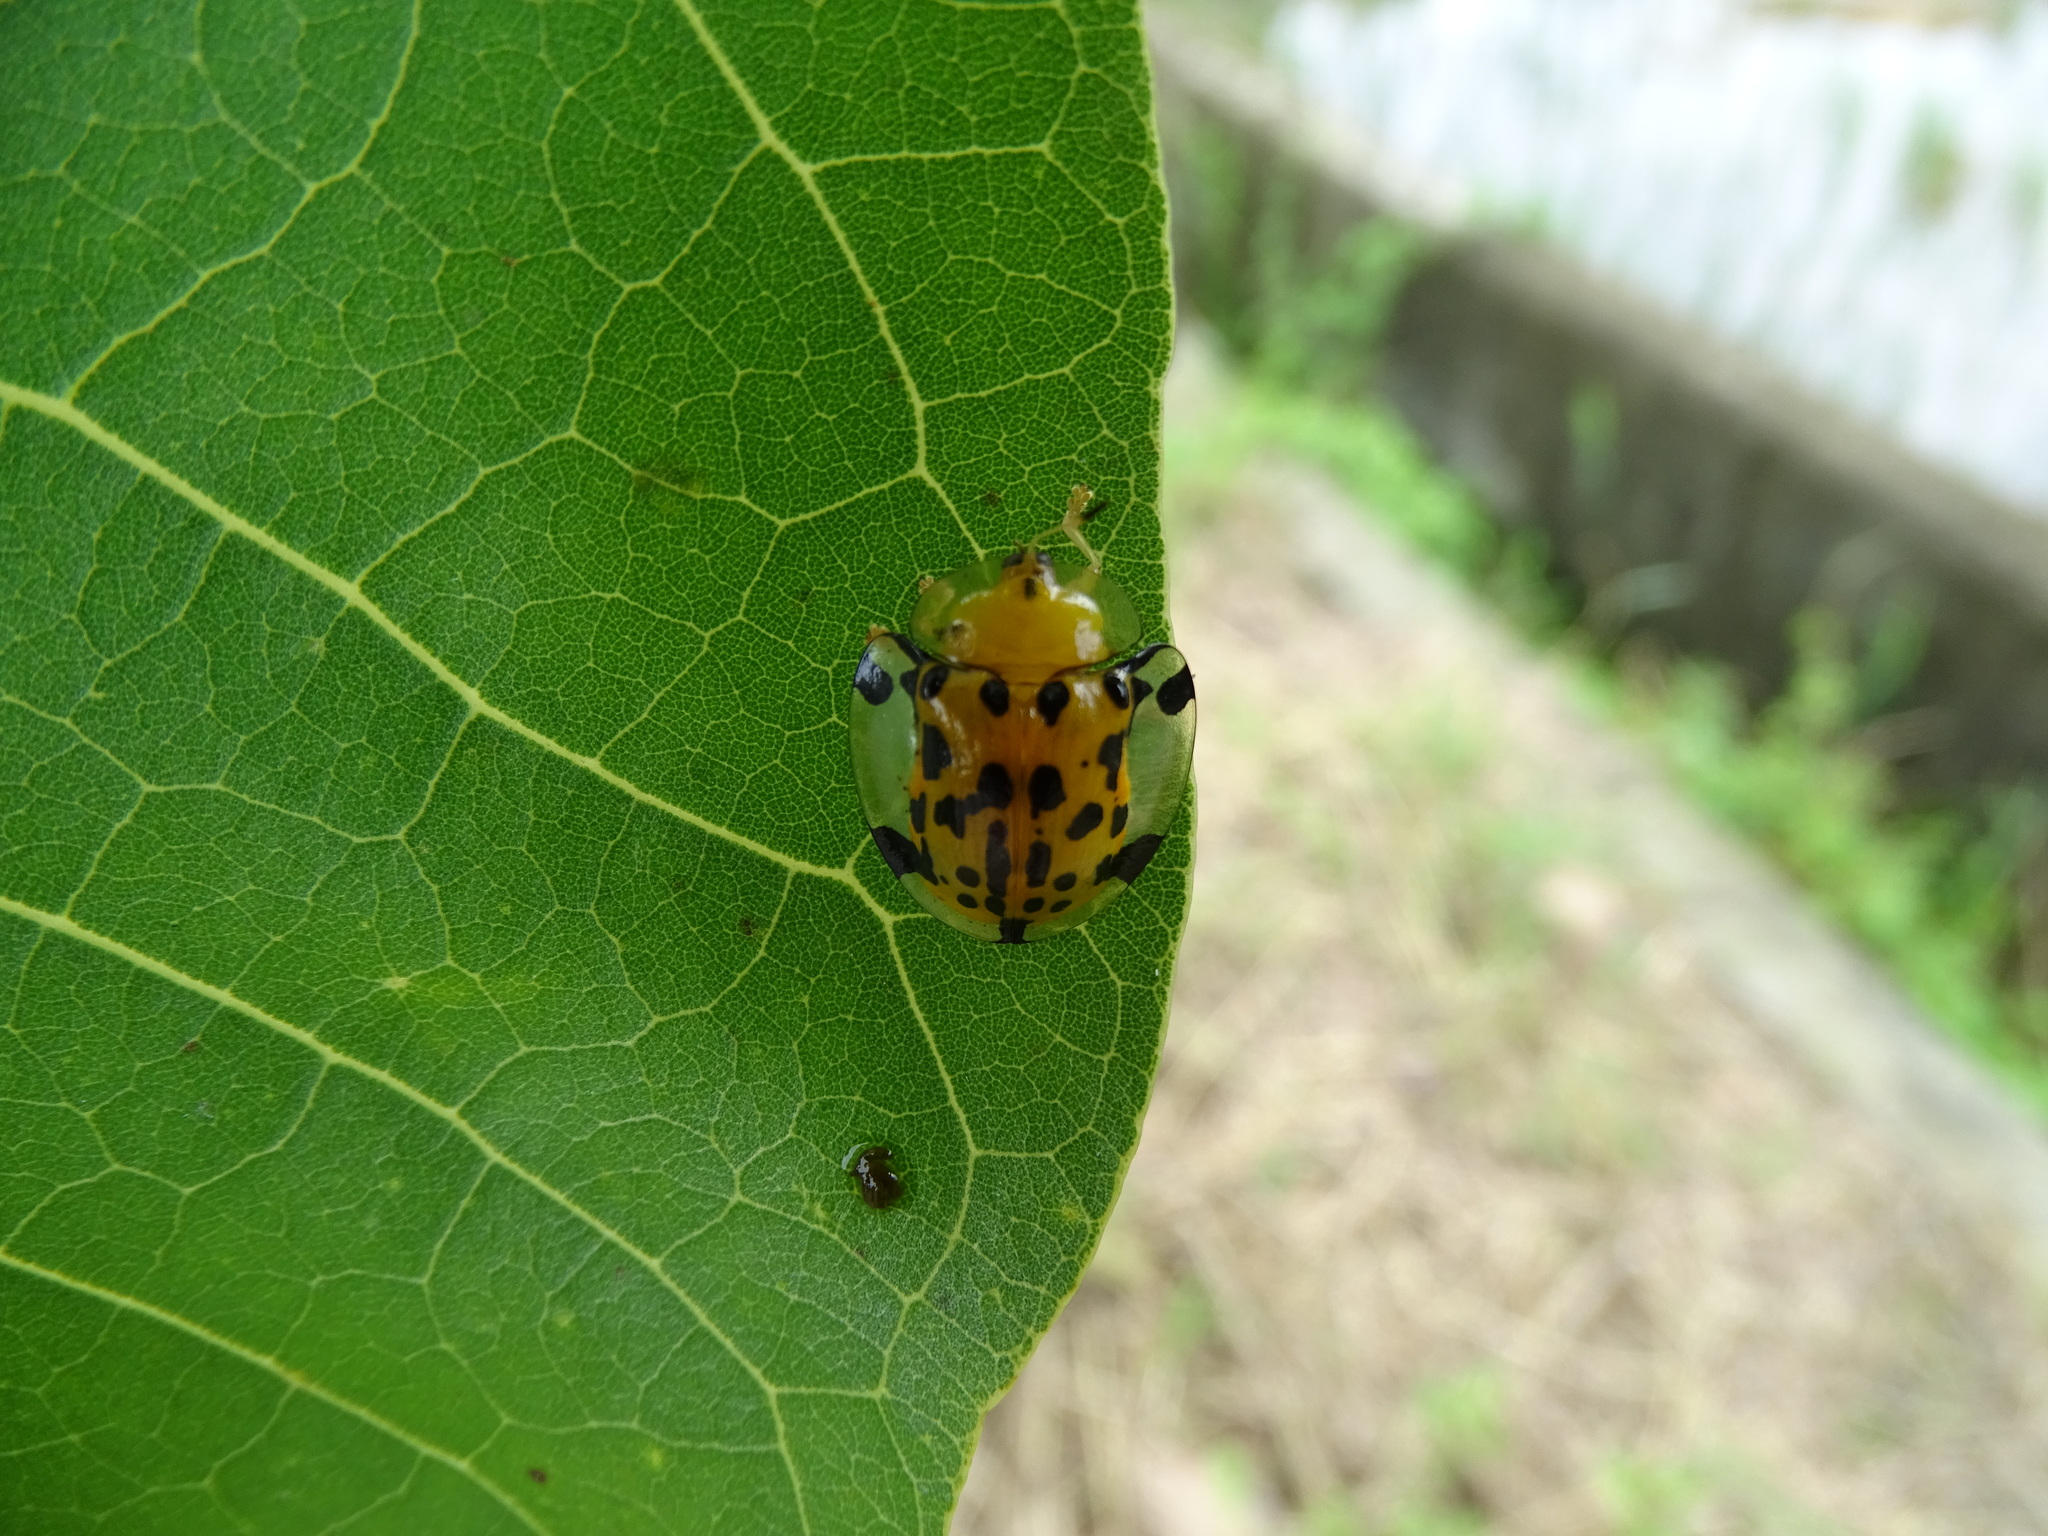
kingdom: Animalia
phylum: Arthropoda
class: Insecta
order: Coleoptera
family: Chrysomelidae
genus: Aspidimorpha
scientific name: Aspidimorpha miliaris
